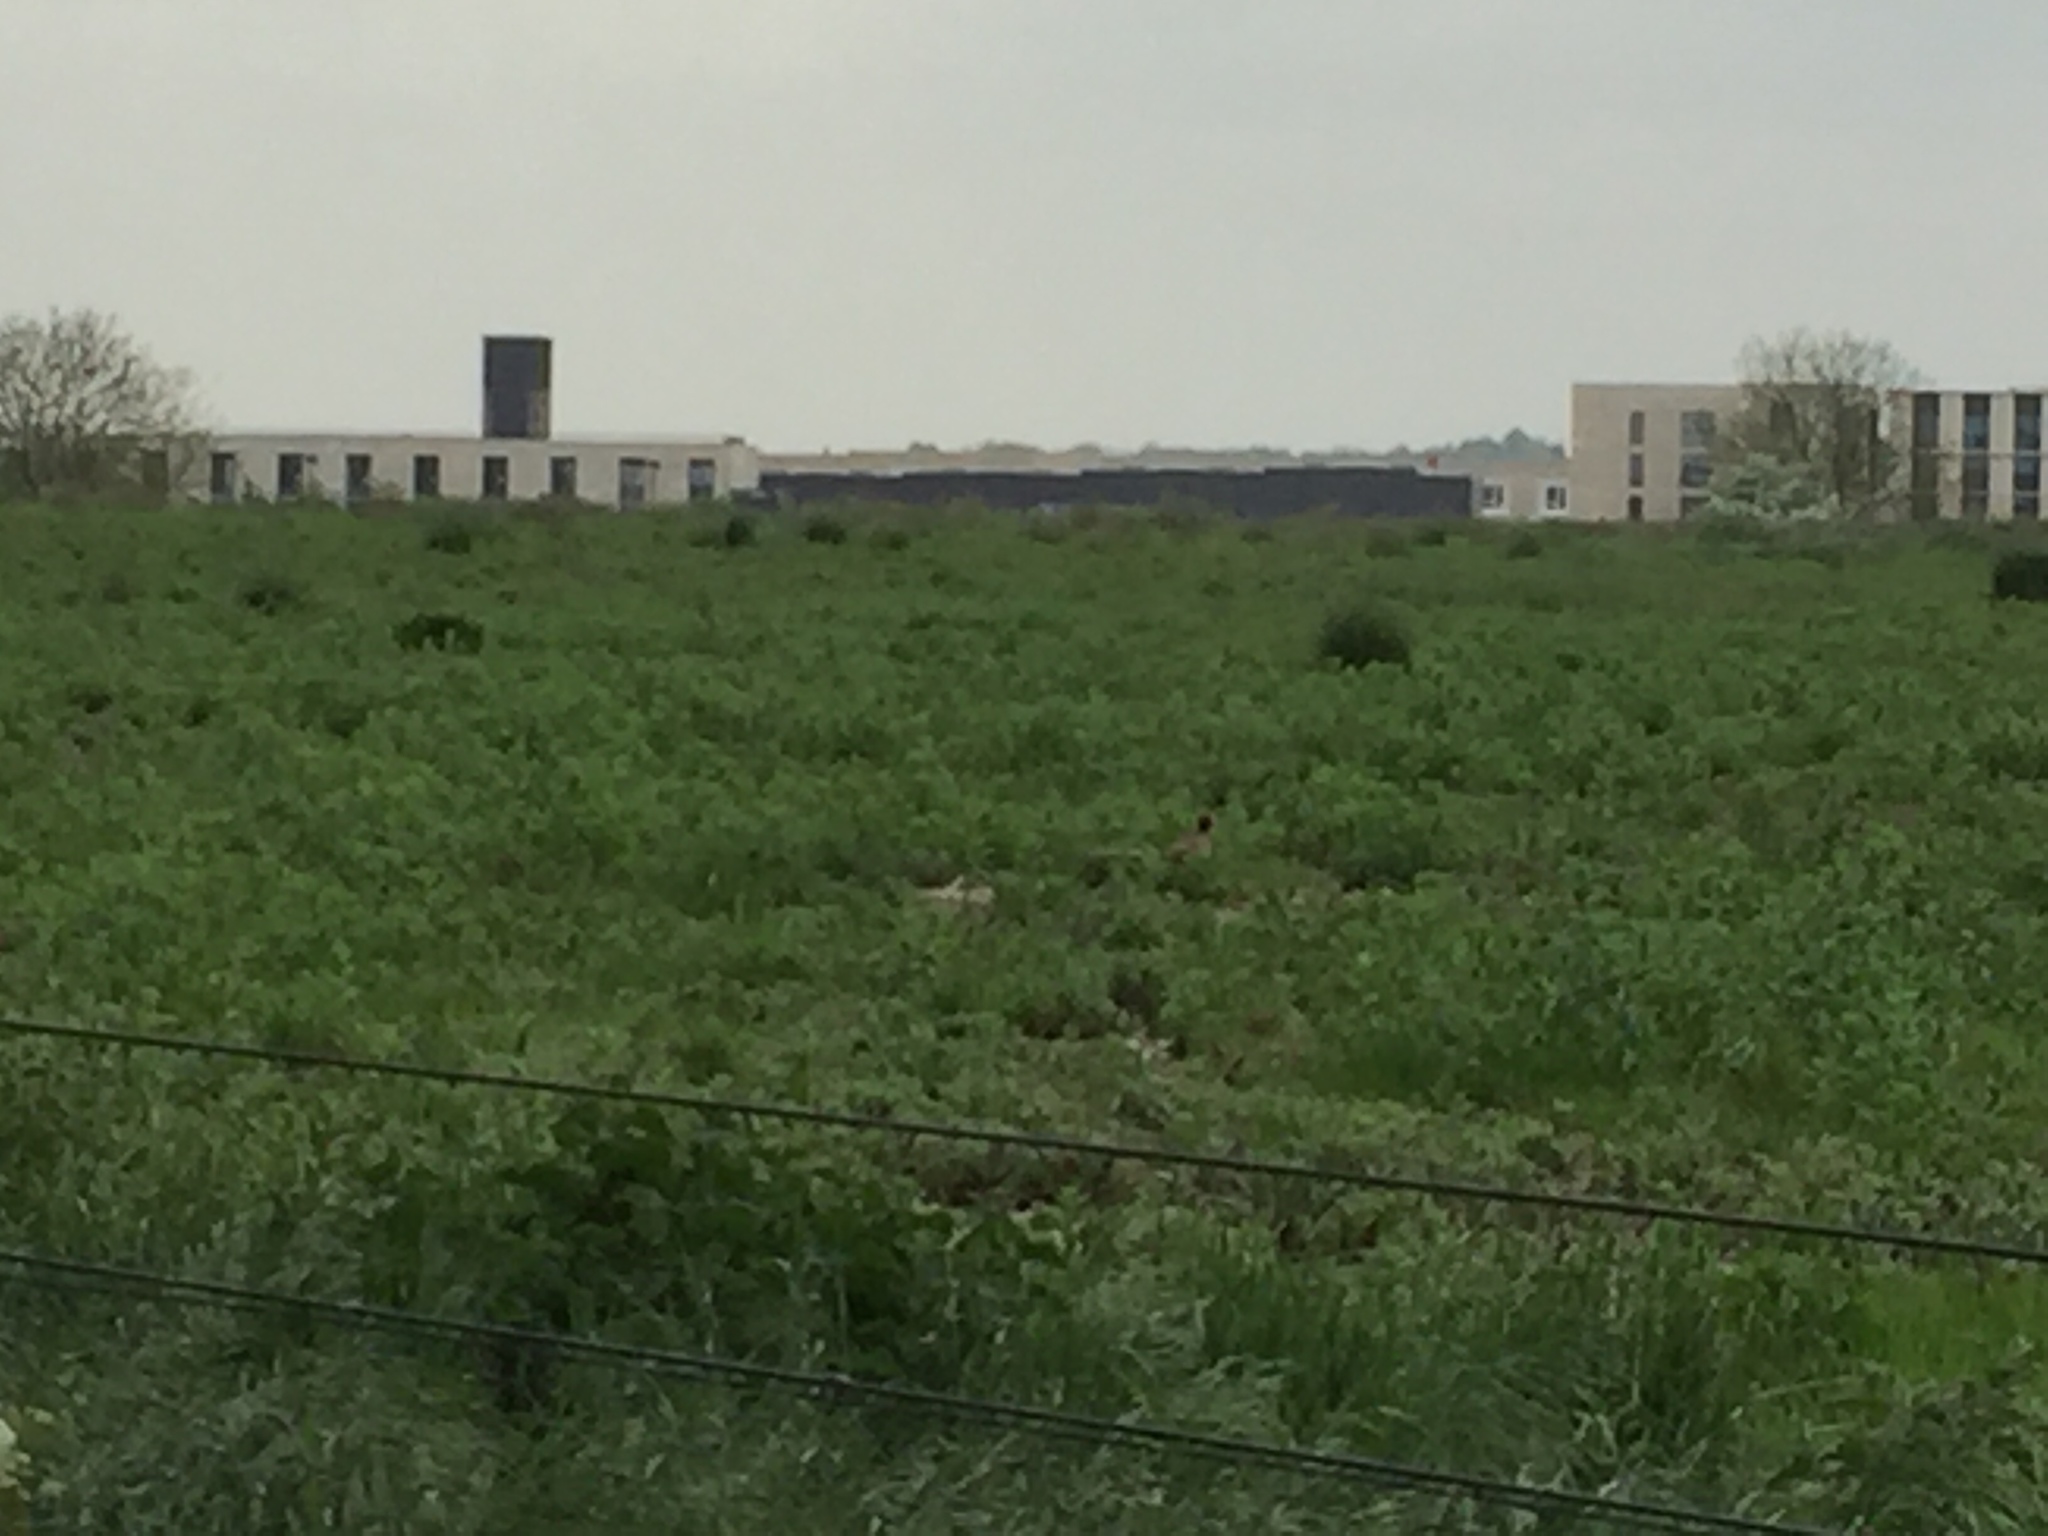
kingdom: Animalia
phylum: Chordata
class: Aves
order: Galliformes
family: Phasianidae
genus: Phasianus
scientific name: Phasianus colchicus
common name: Common pheasant
